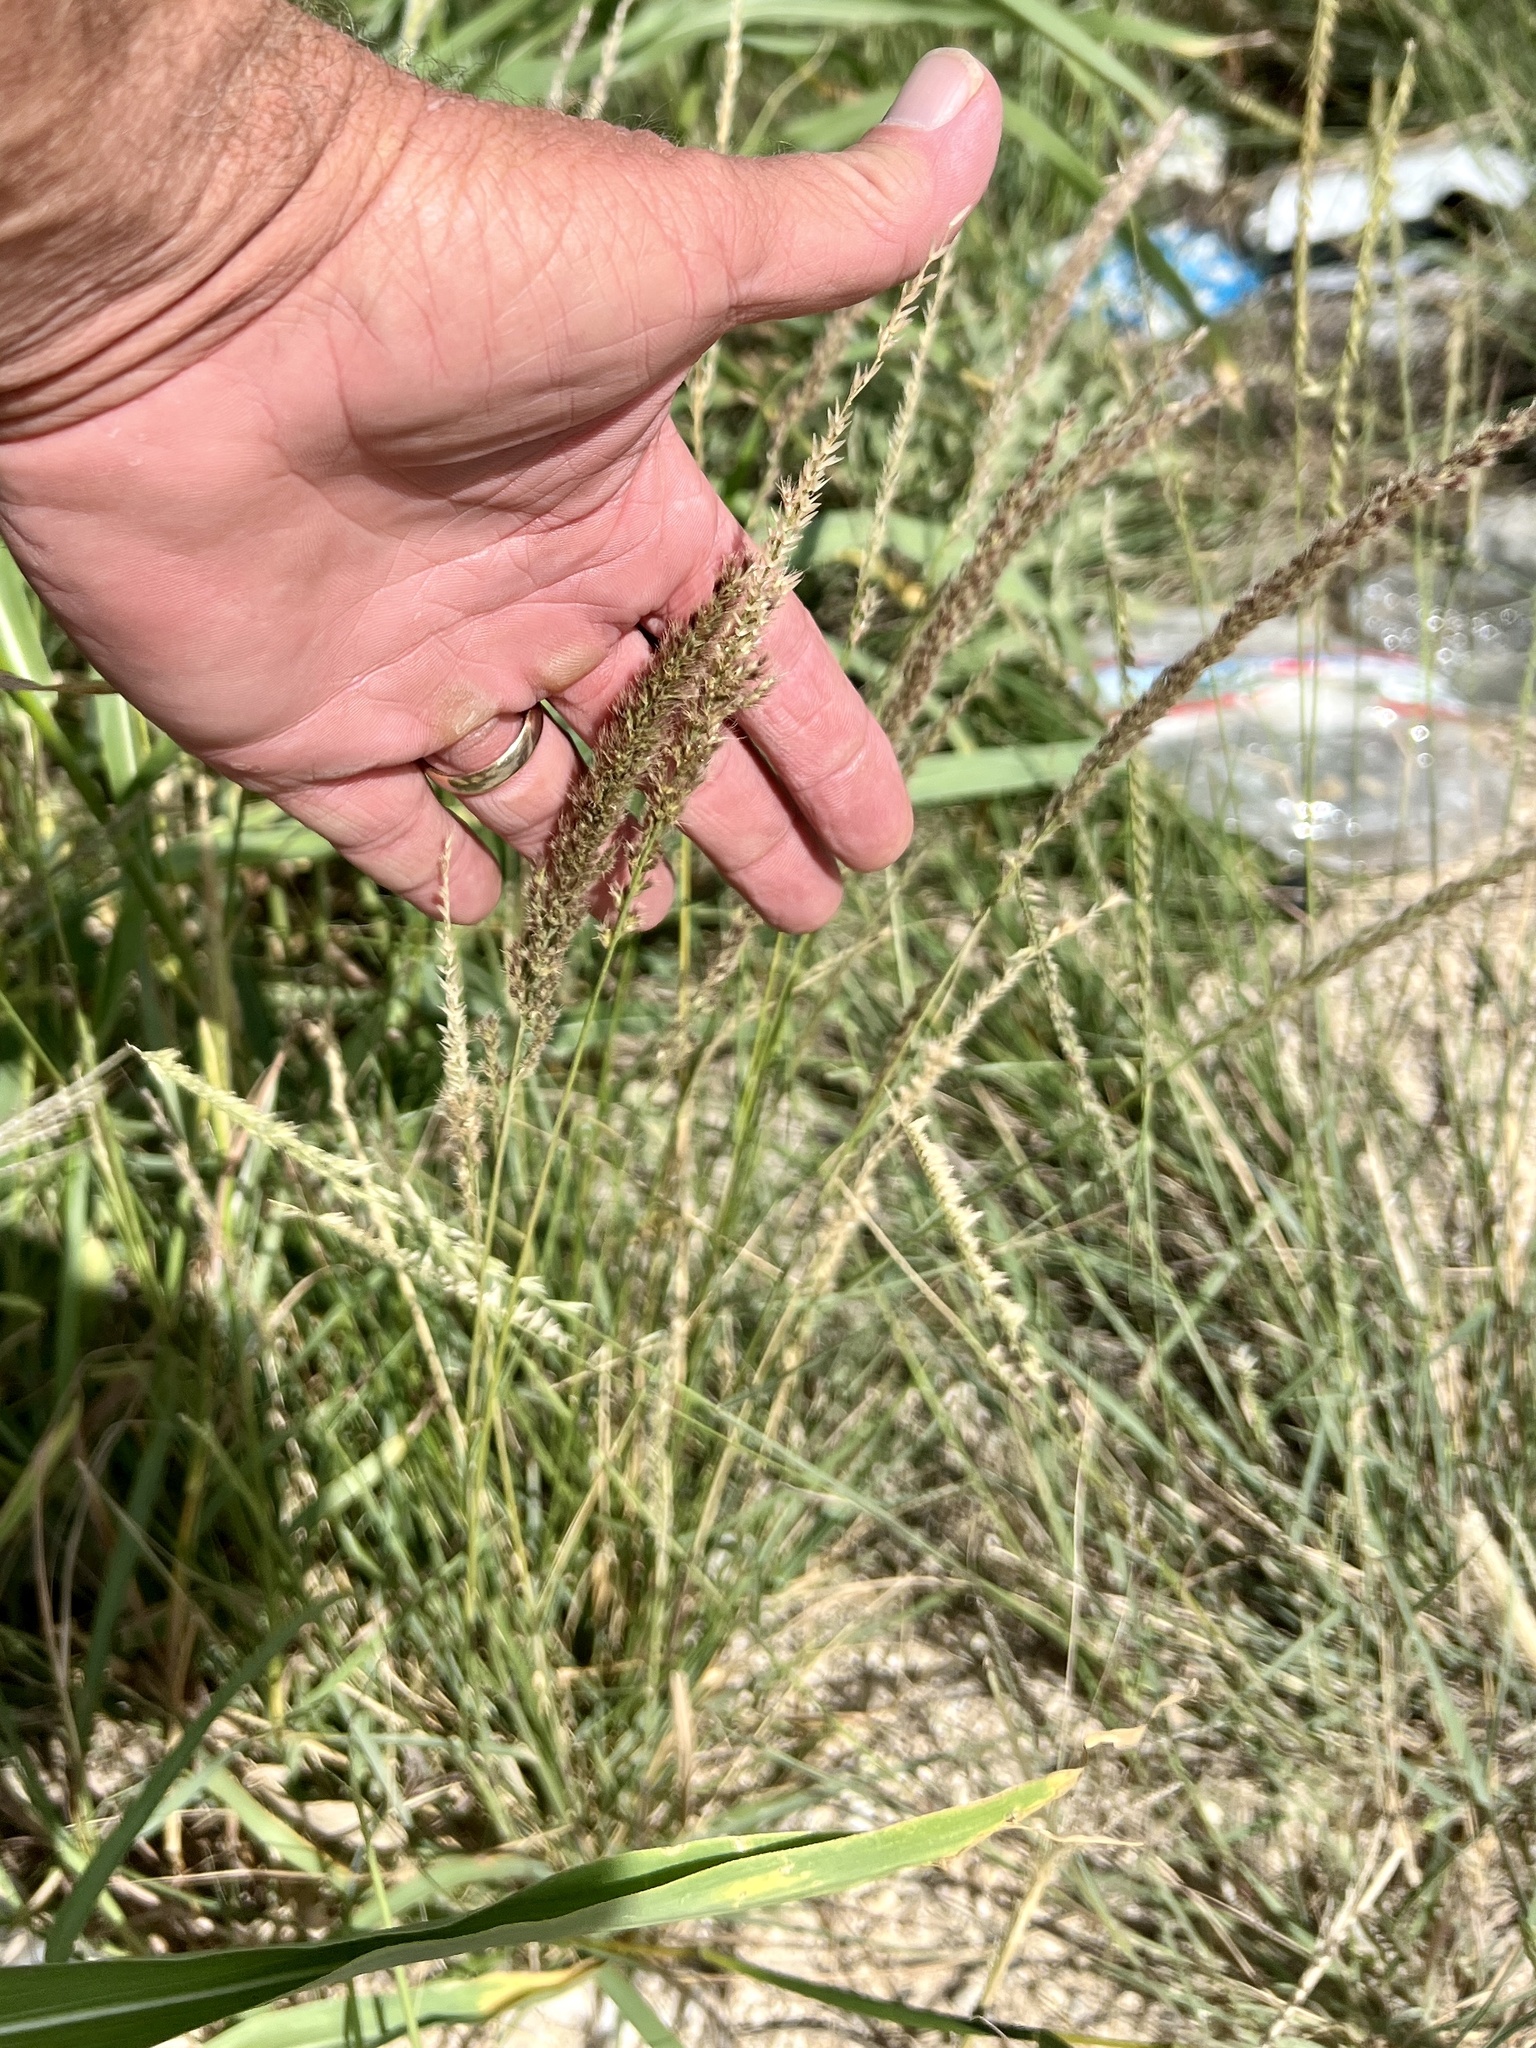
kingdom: Plantae
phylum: Tracheophyta
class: Liliopsida
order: Poales
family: Poaceae
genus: Pappophorum
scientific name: Pappophorum bicolor
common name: Pink pappus grass
